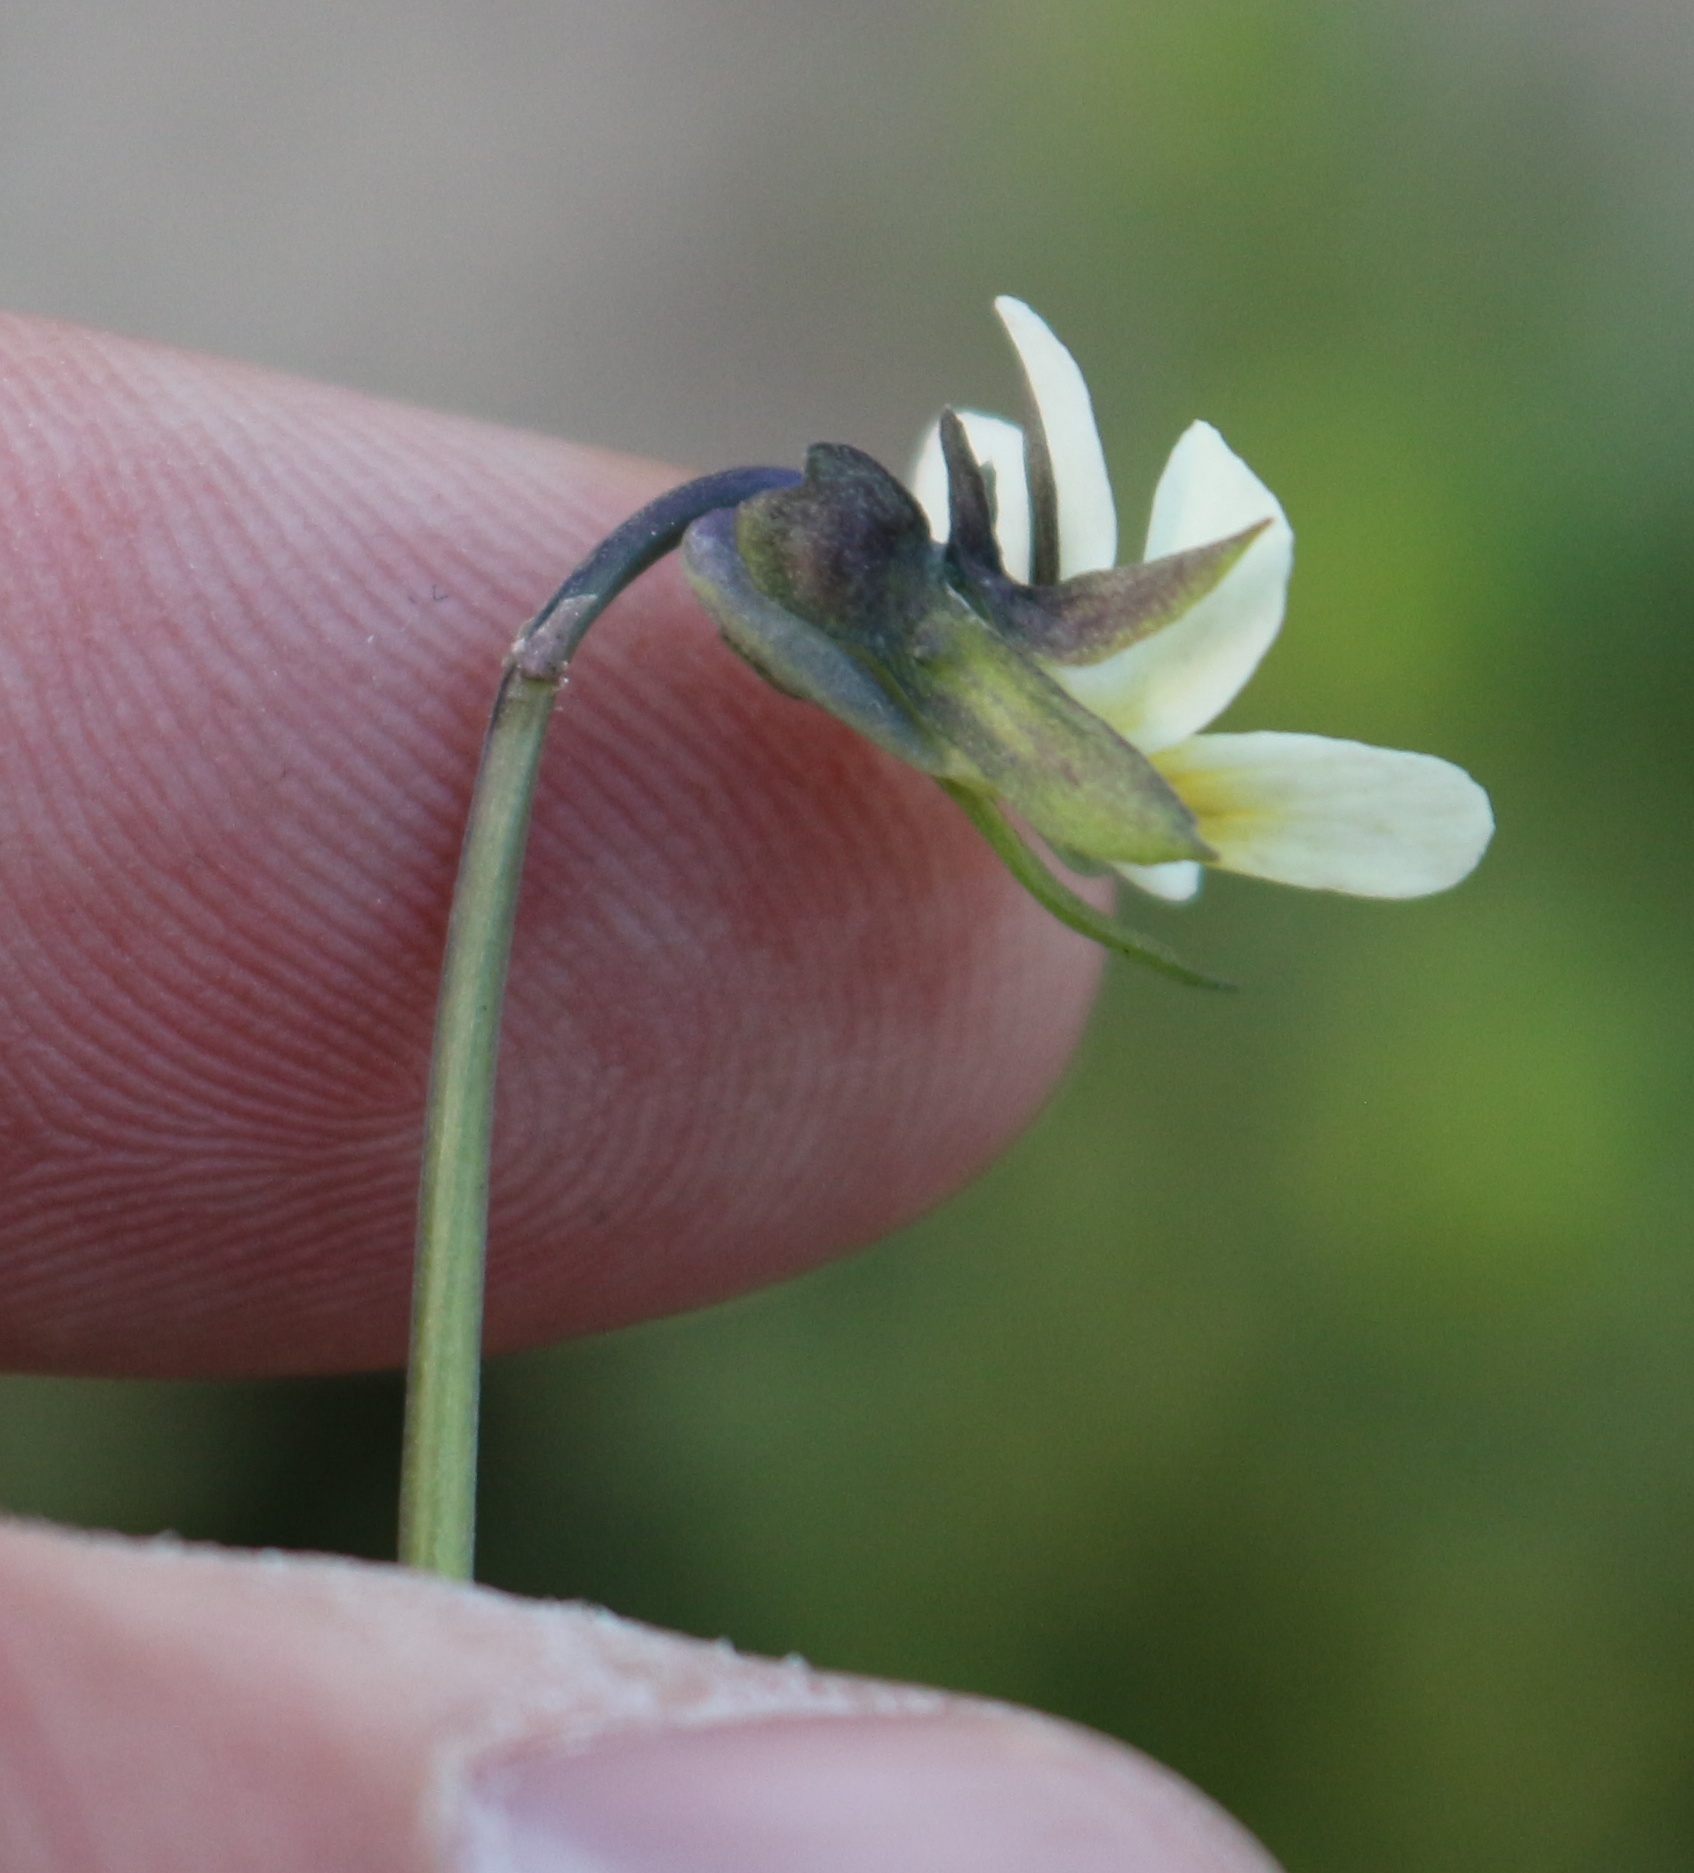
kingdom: Plantae
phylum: Tracheophyta
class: Magnoliopsida
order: Malpighiales
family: Violaceae
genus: Viola
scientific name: Viola arvensis
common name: Field pansy
